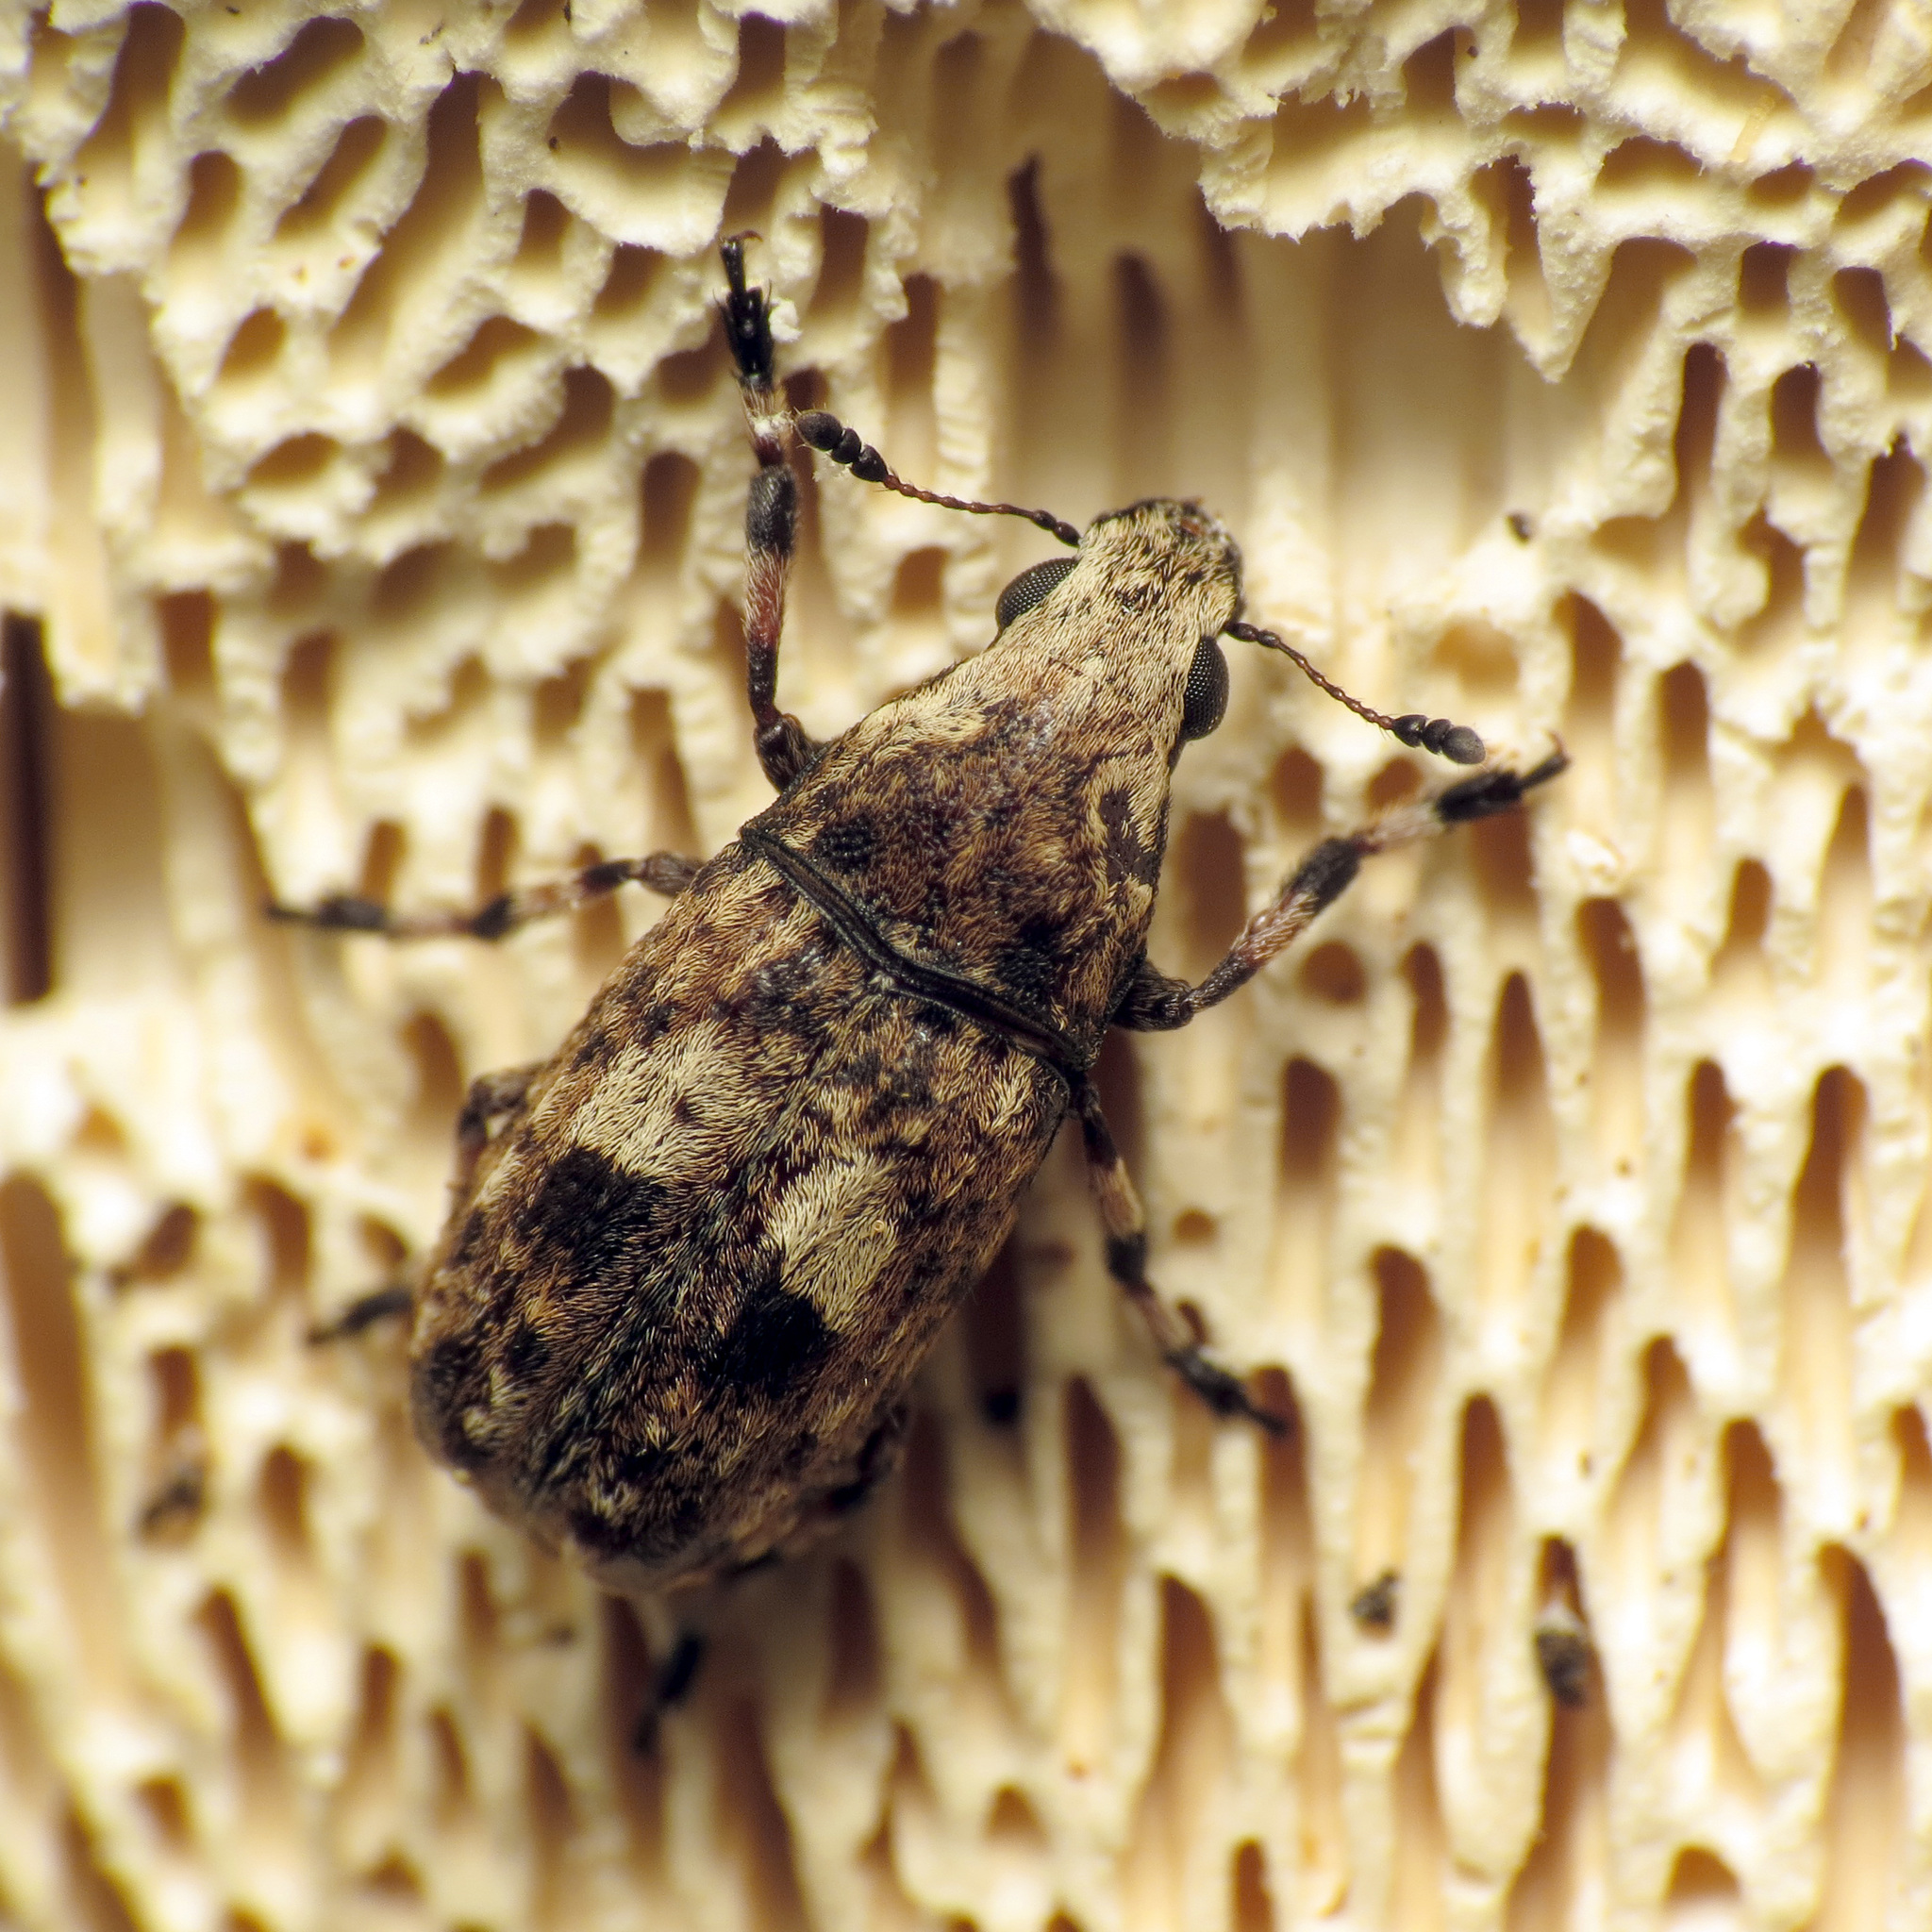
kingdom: Animalia
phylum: Arthropoda
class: Insecta
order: Coleoptera
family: Anthribidae
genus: Euparius
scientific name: Euparius marmoreus
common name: Marbled fungus weevil
